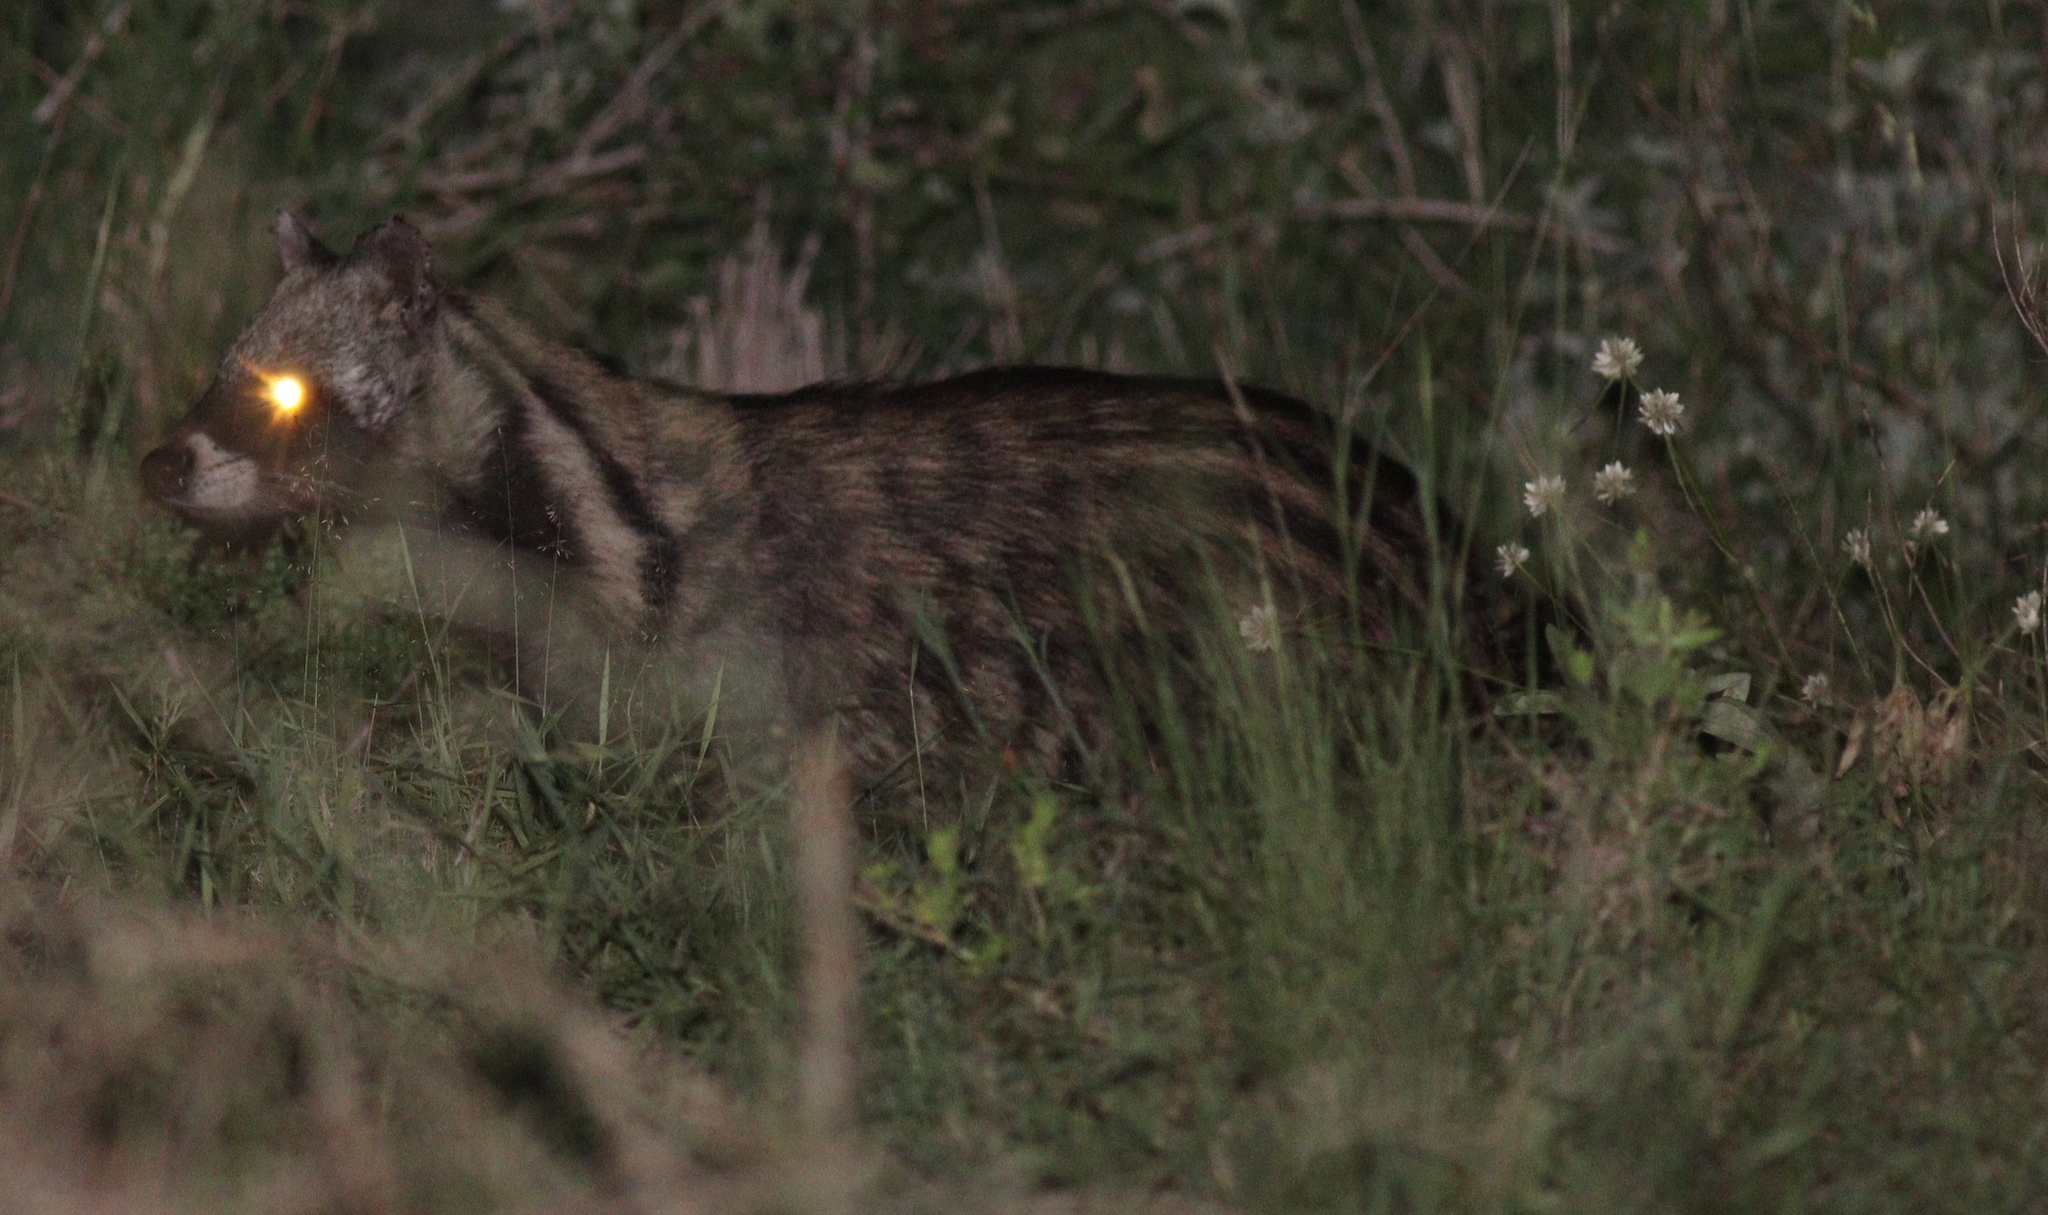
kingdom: Animalia
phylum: Chordata
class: Mammalia
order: Carnivora
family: Viverridae
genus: Civettictis
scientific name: Civettictis civetta
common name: African civet
